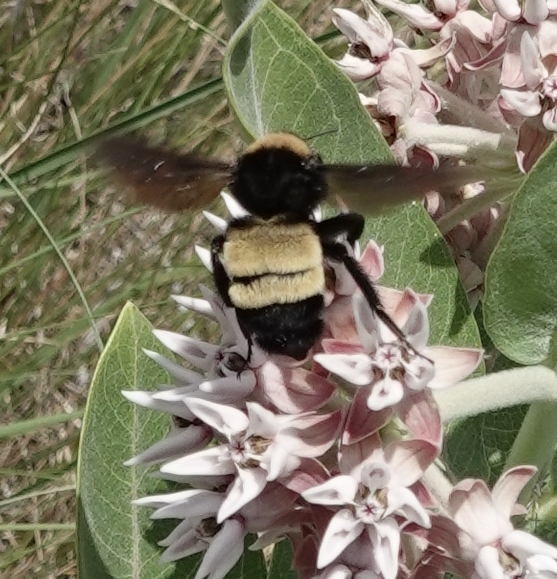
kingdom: Animalia
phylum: Arthropoda
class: Insecta
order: Hymenoptera
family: Apidae
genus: Bombus
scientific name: Bombus pensylvanicus
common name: Bumble bee
